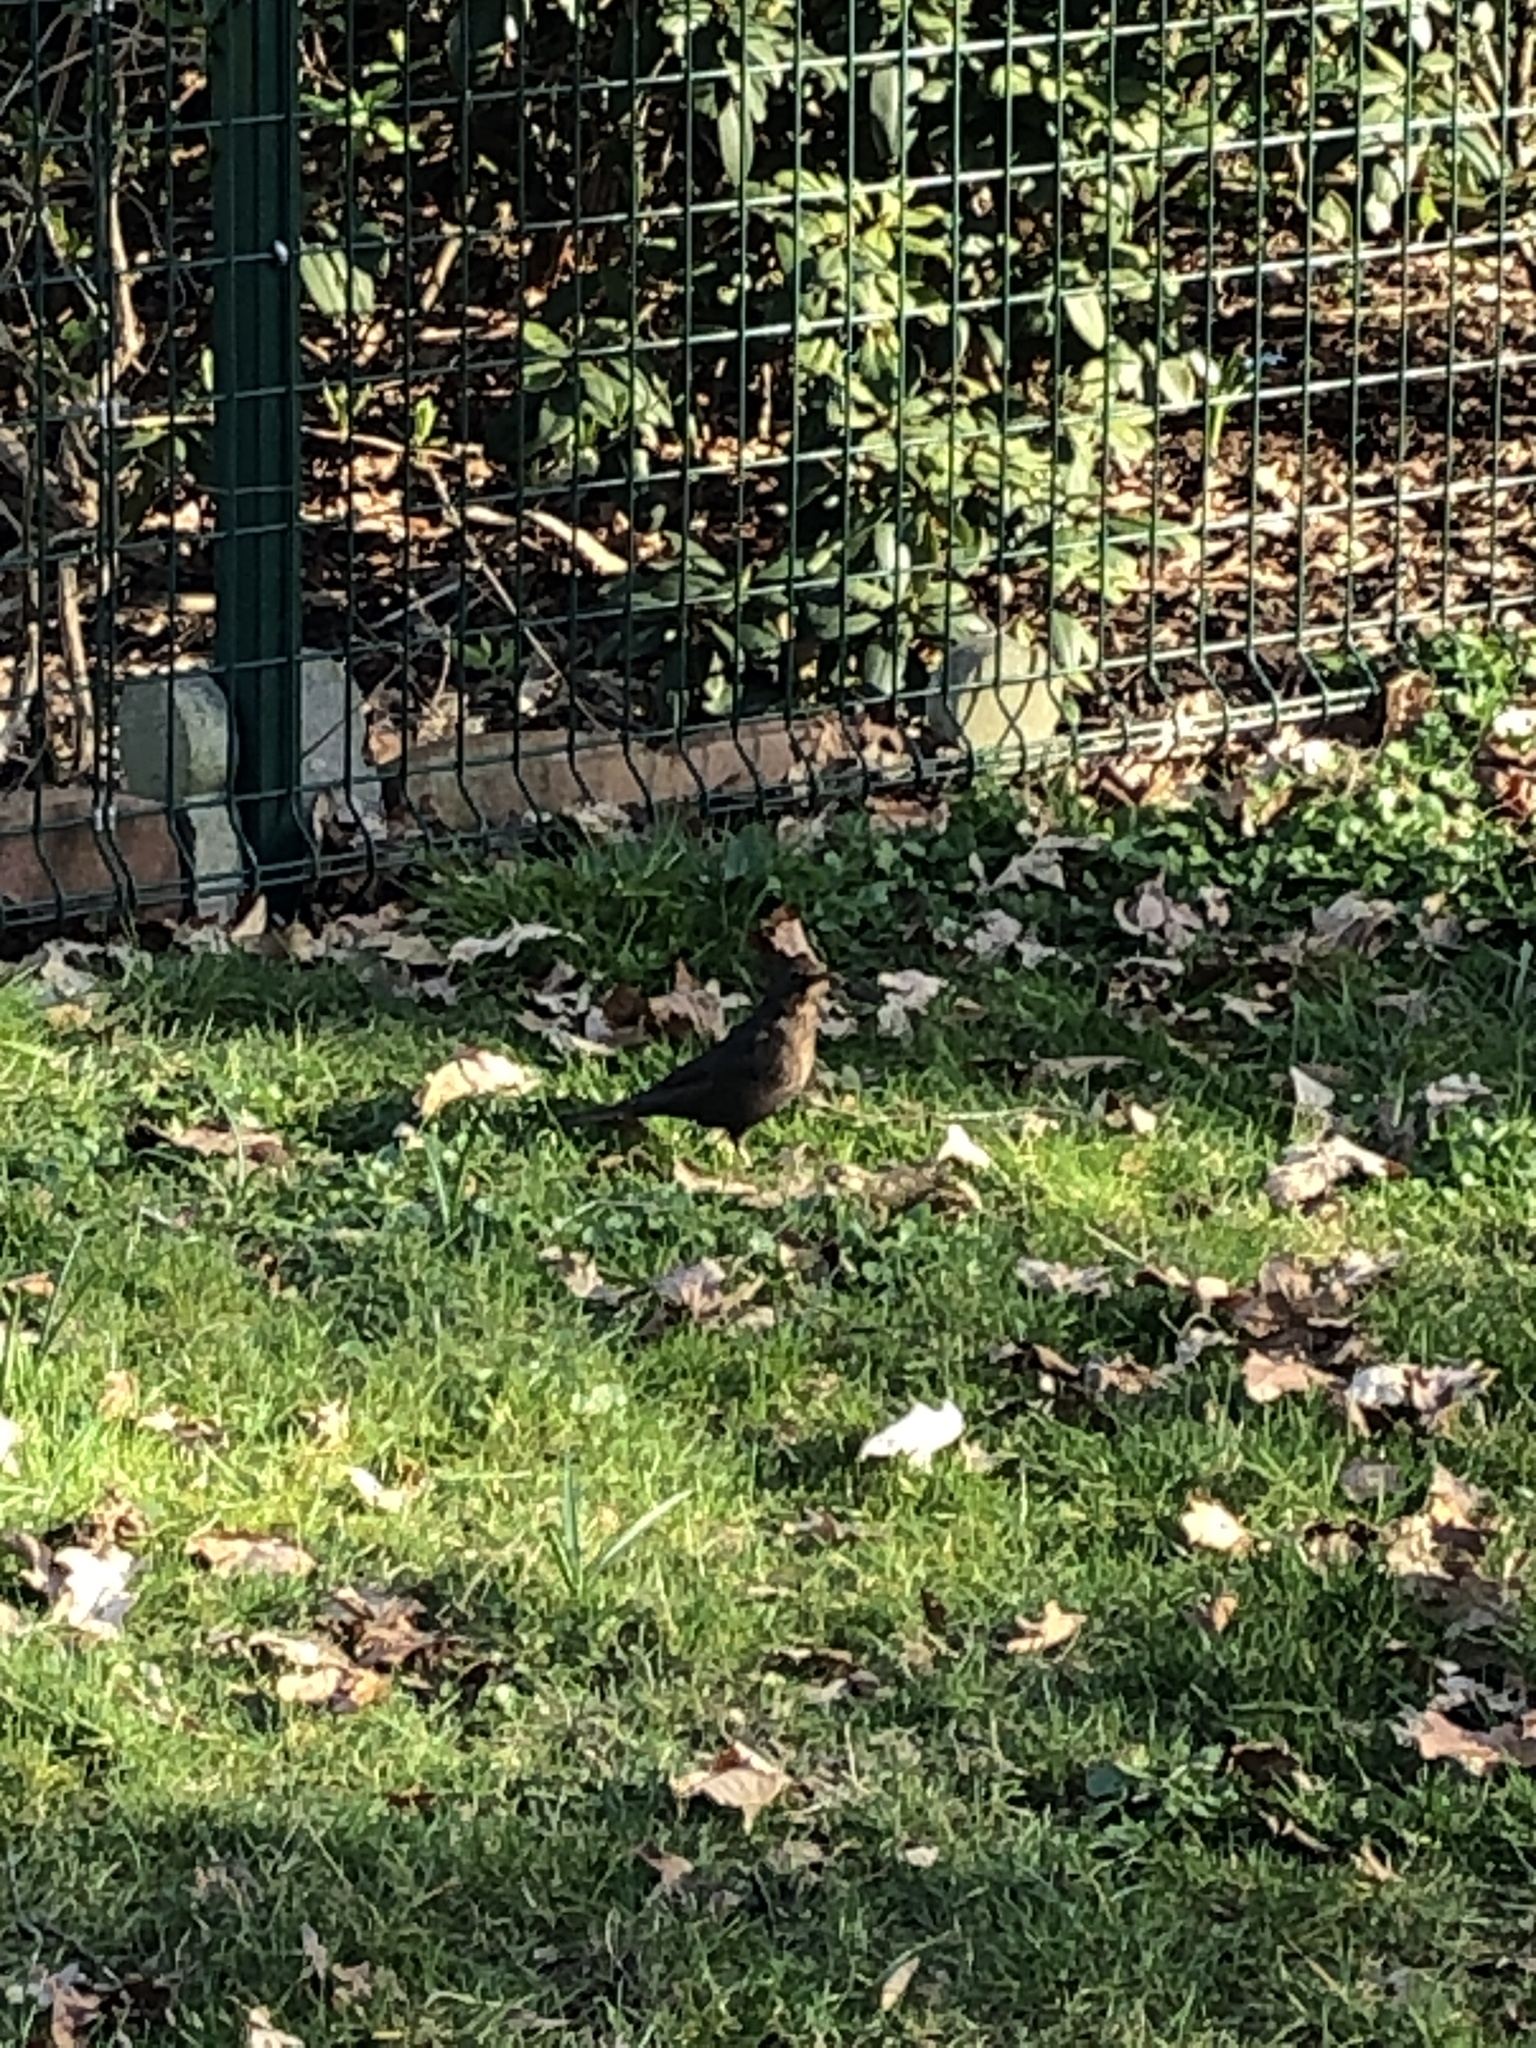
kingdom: Animalia
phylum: Chordata
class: Aves
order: Passeriformes
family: Turdidae
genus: Turdus
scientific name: Turdus merula
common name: Common blackbird
